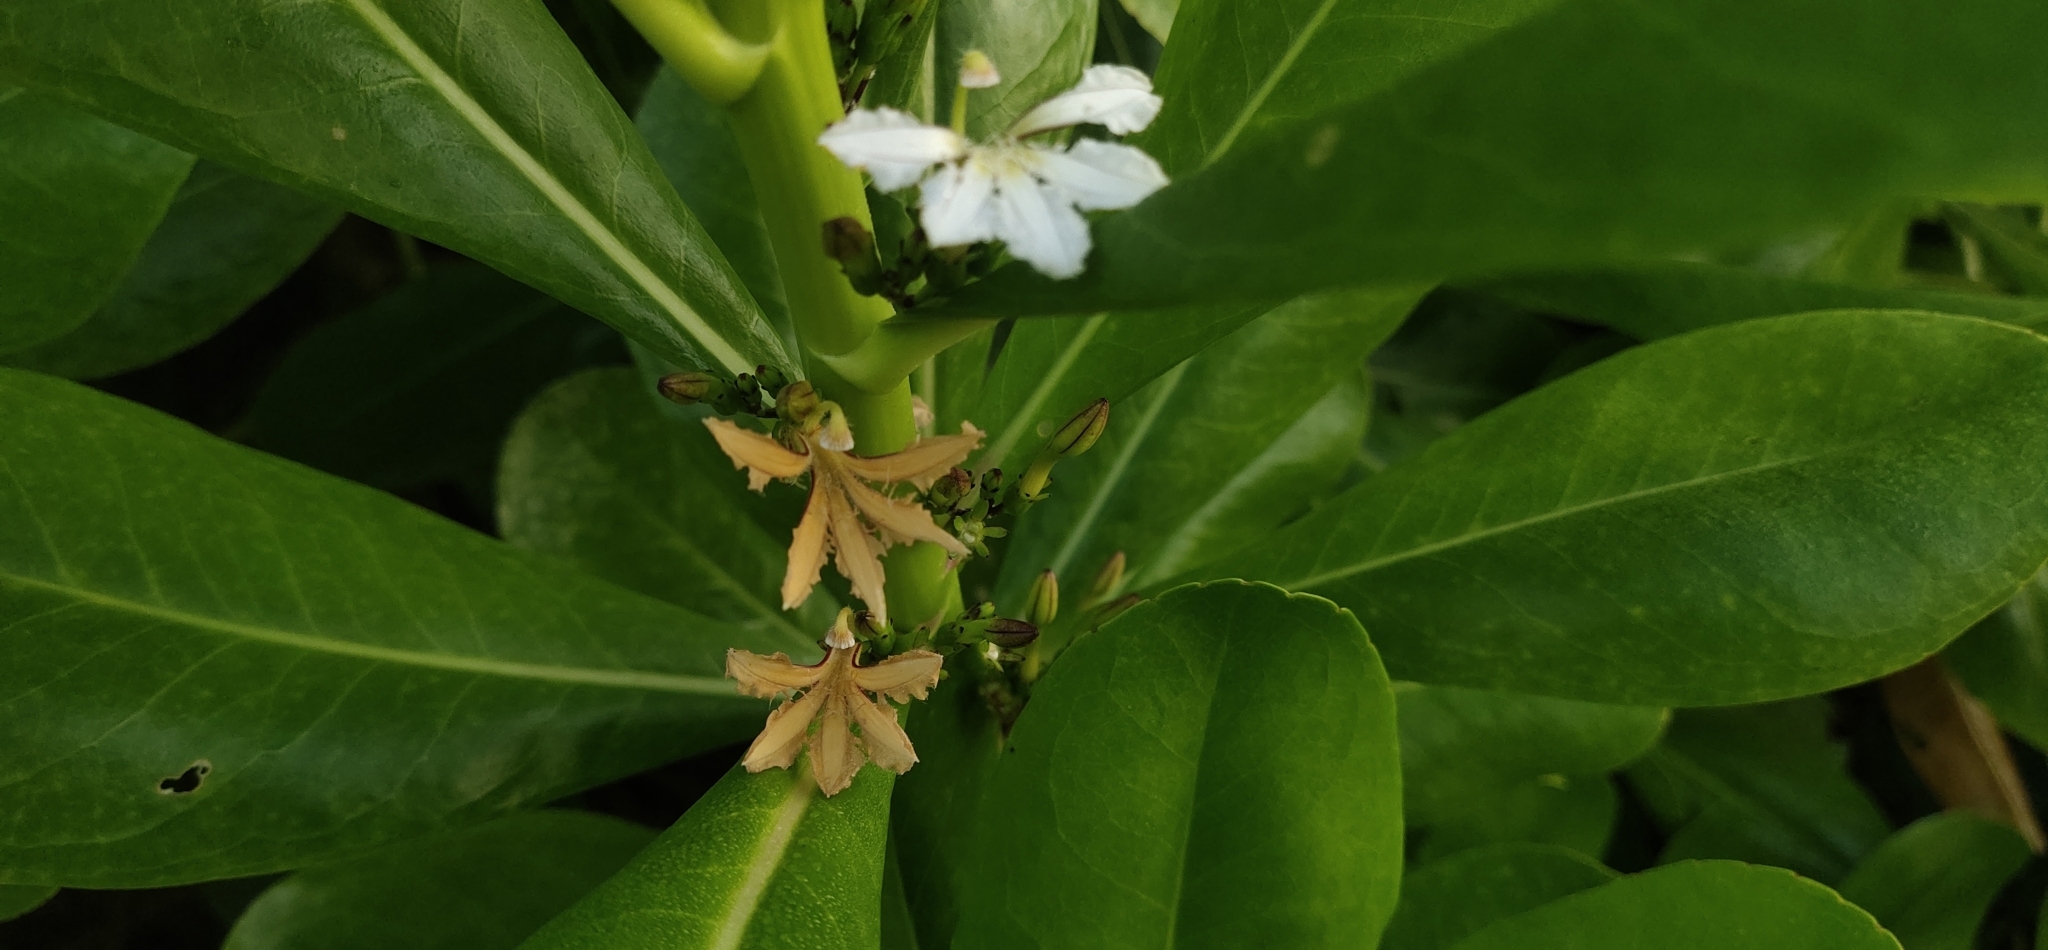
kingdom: Plantae
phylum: Tracheophyta
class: Magnoliopsida
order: Asterales
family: Goodeniaceae
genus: Scaevola
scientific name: Scaevola taccada
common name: Sea lettucetree
